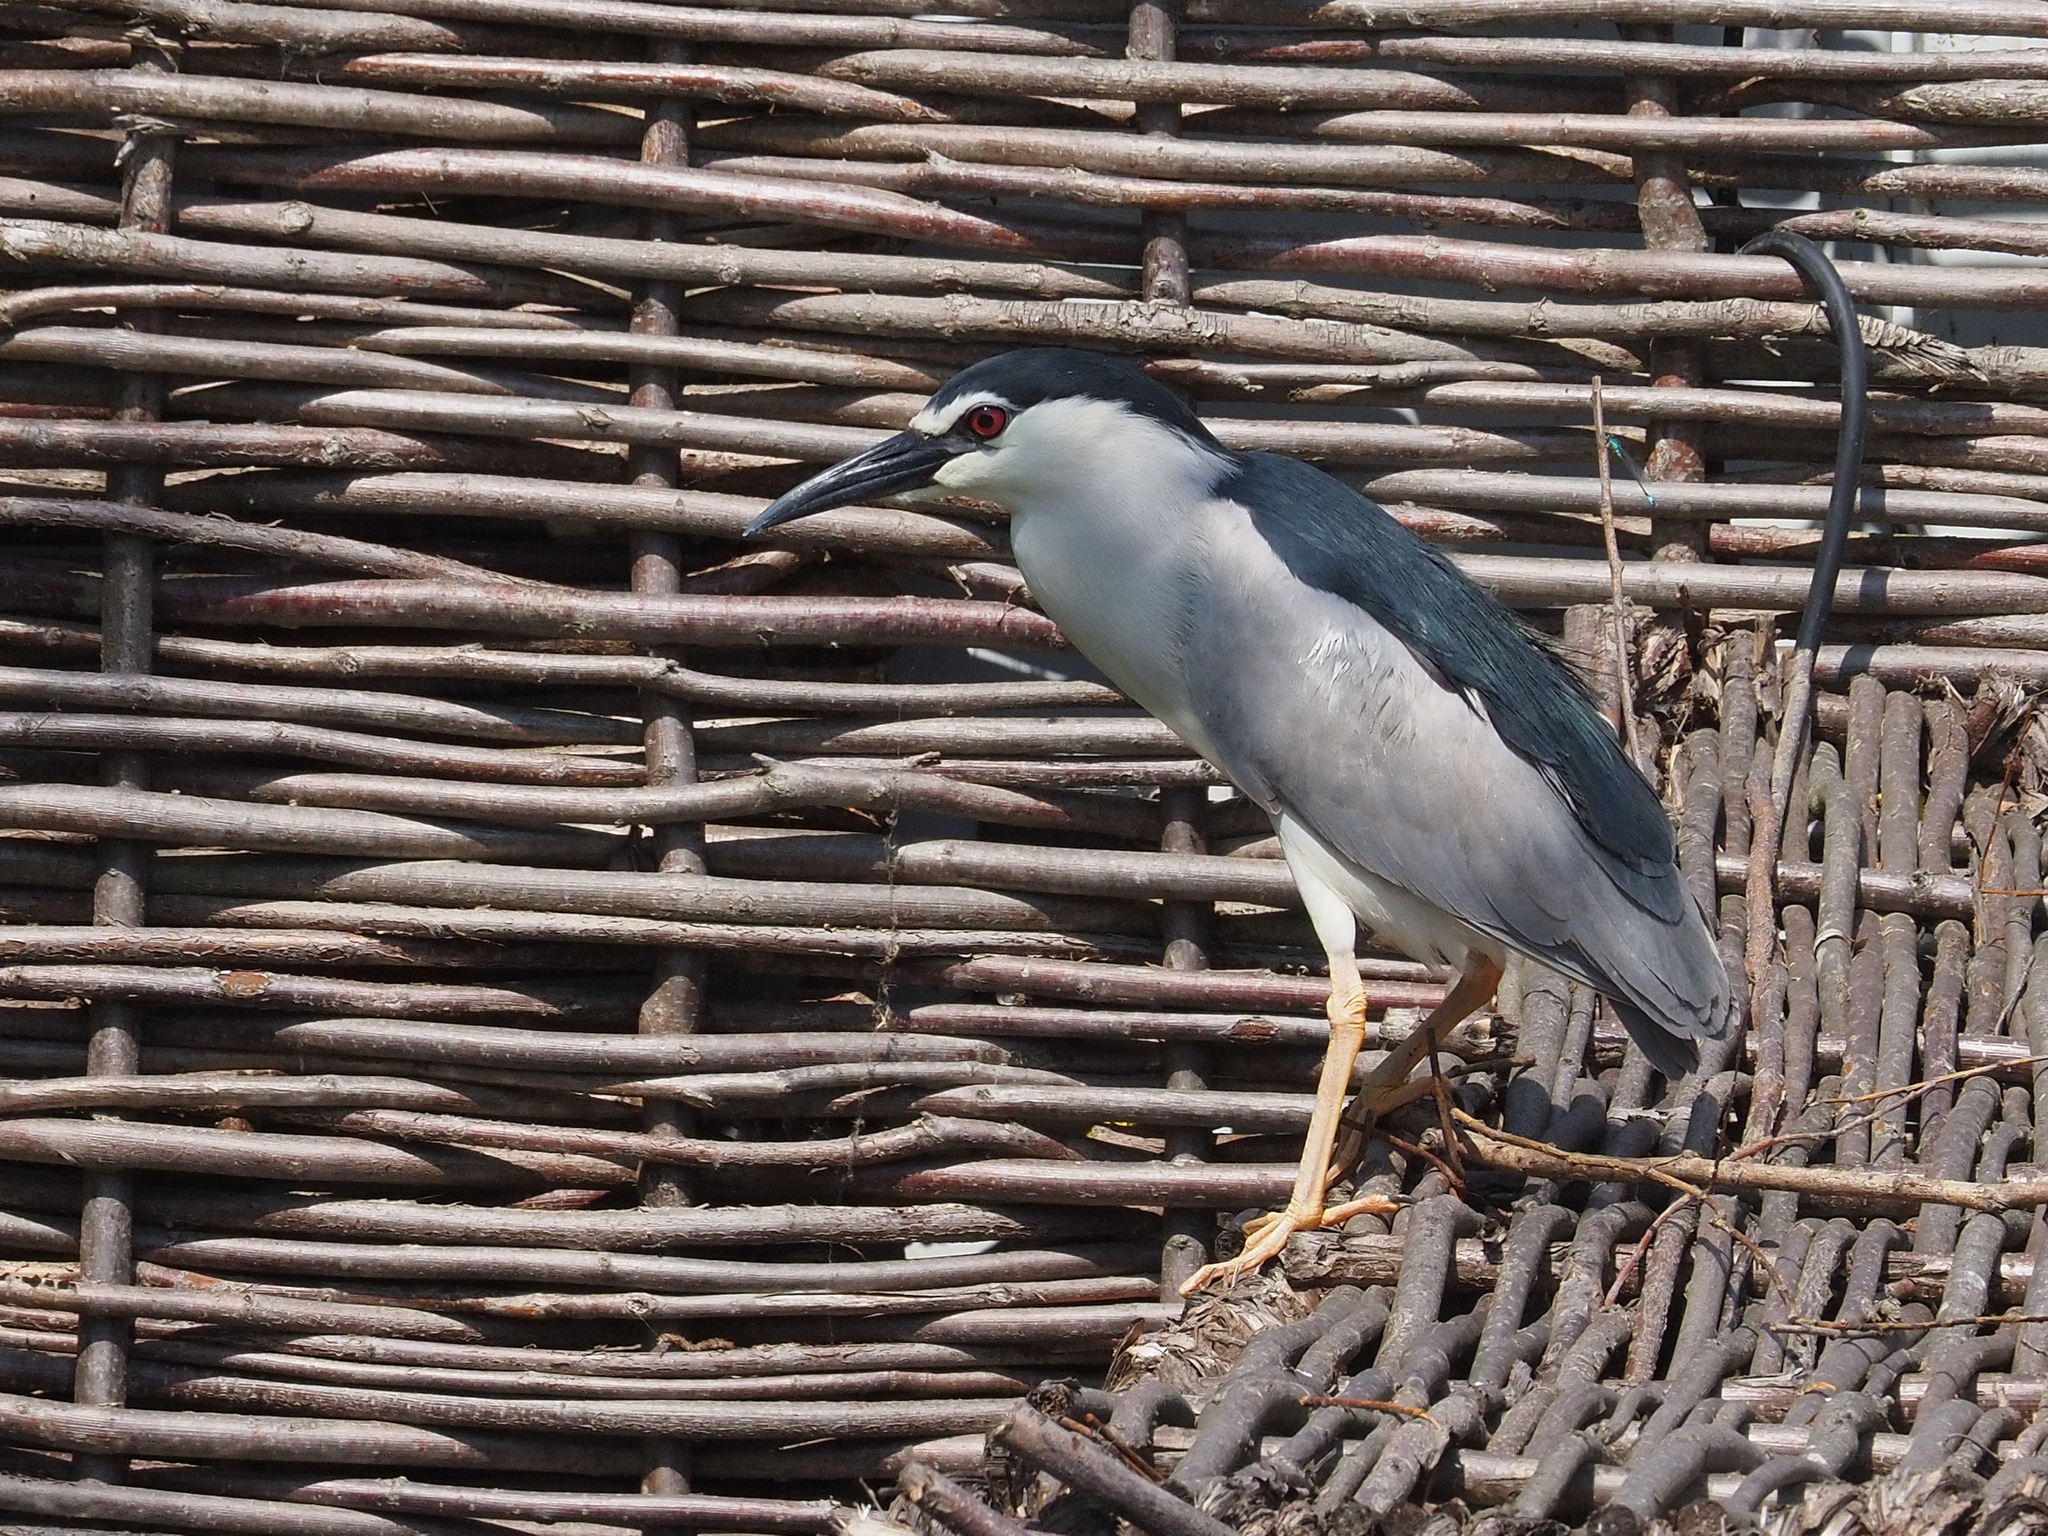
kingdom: Animalia
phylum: Chordata
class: Aves
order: Pelecaniformes
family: Ardeidae
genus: Nycticorax
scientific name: Nycticorax nycticorax
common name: Black-crowned night heron
